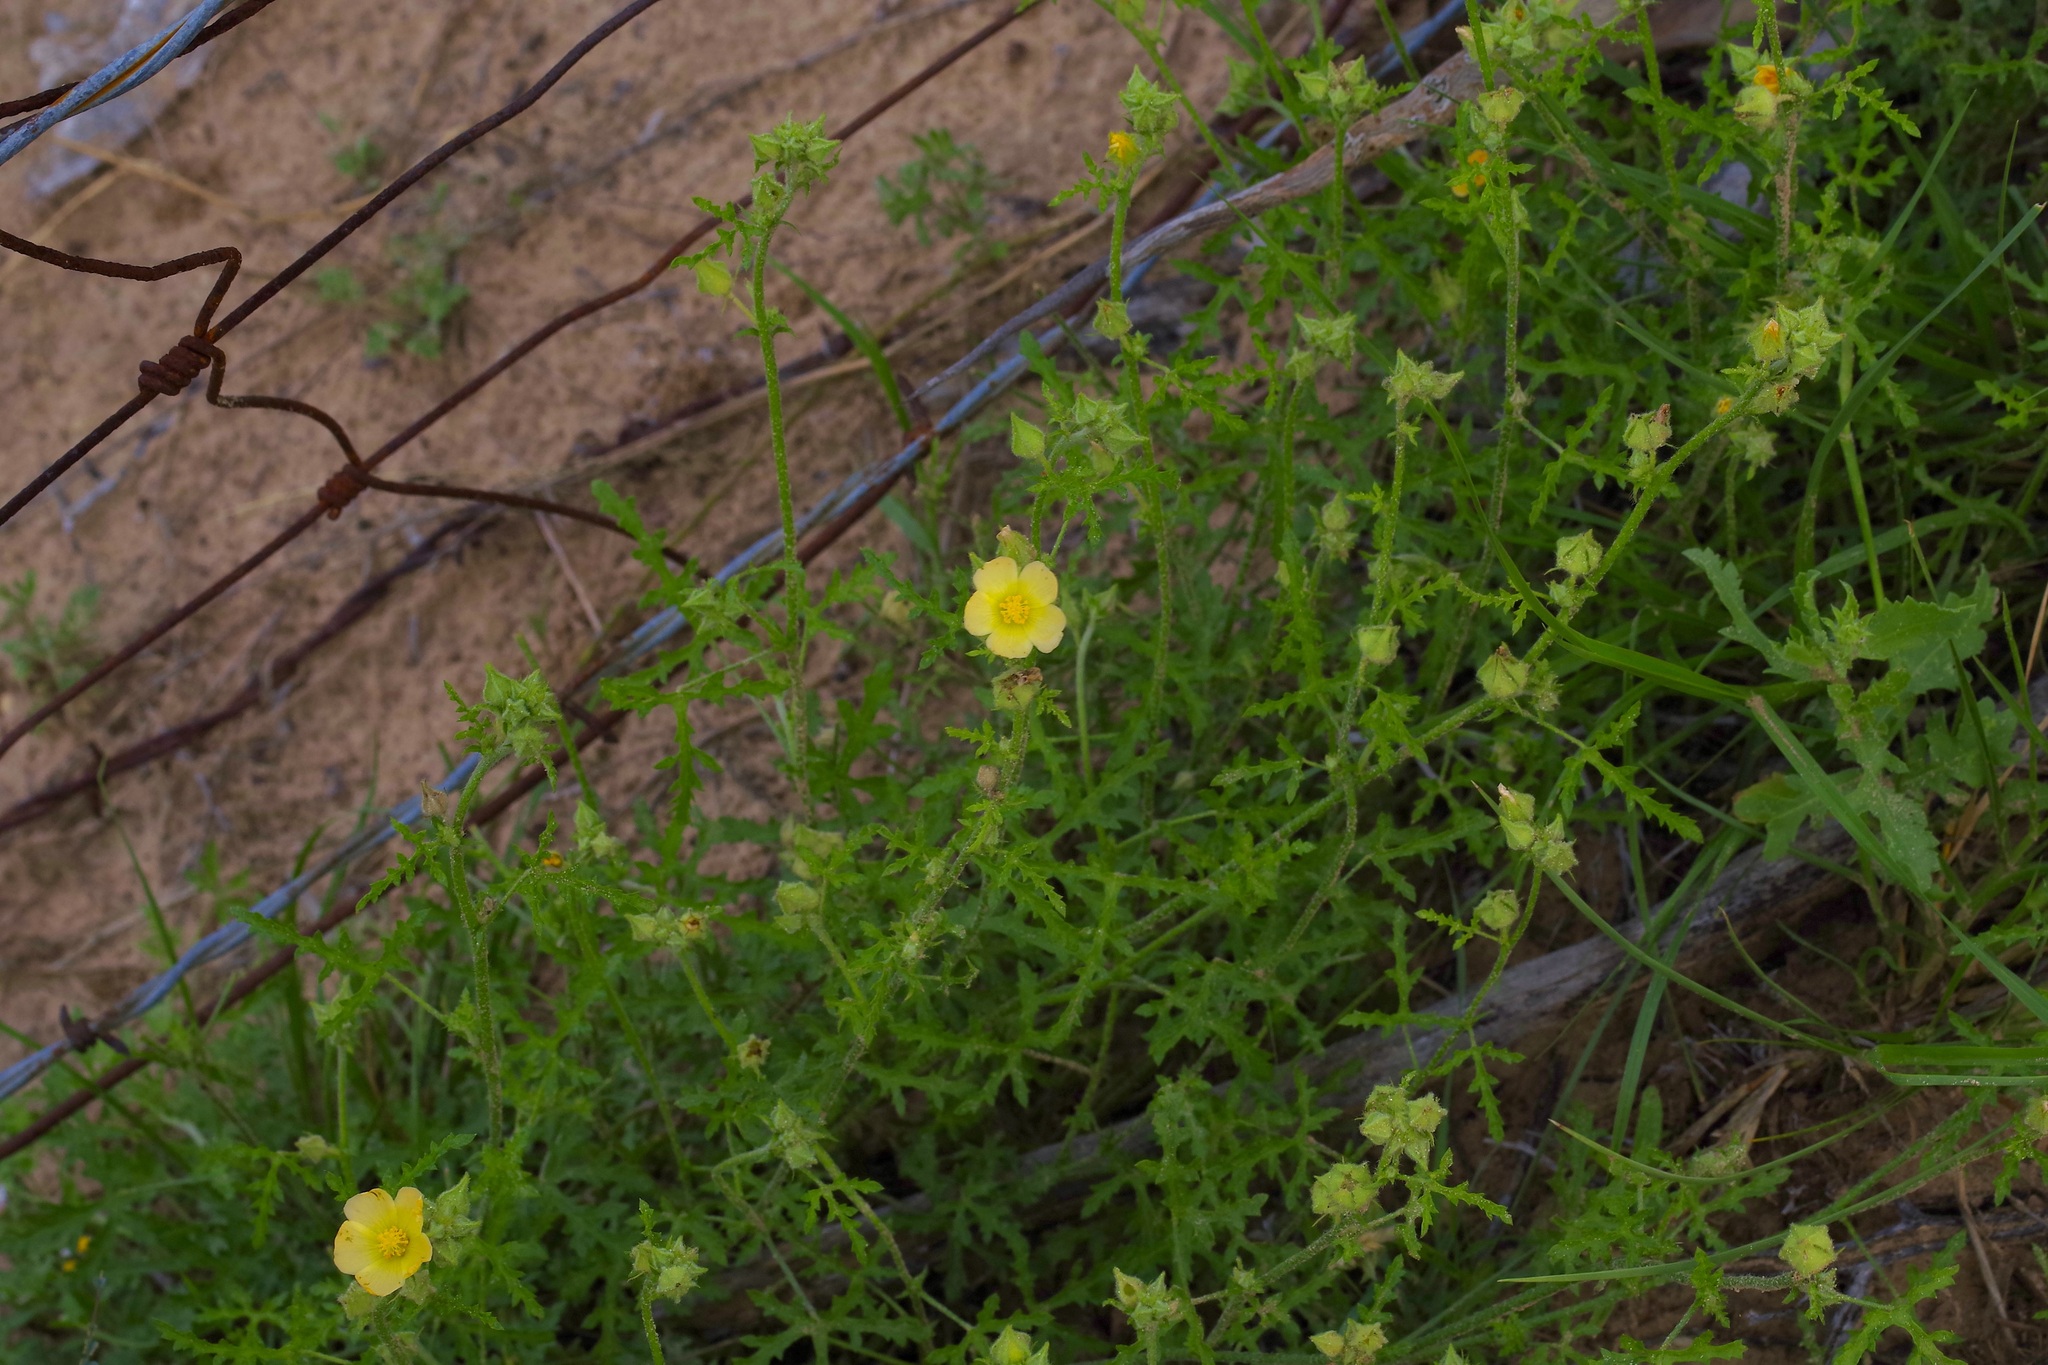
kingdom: Plantae
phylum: Tracheophyta
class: Magnoliopsida
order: Malvales
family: Malvaceae
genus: Sphaeralcea
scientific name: Sphaeralcea pedatifida
